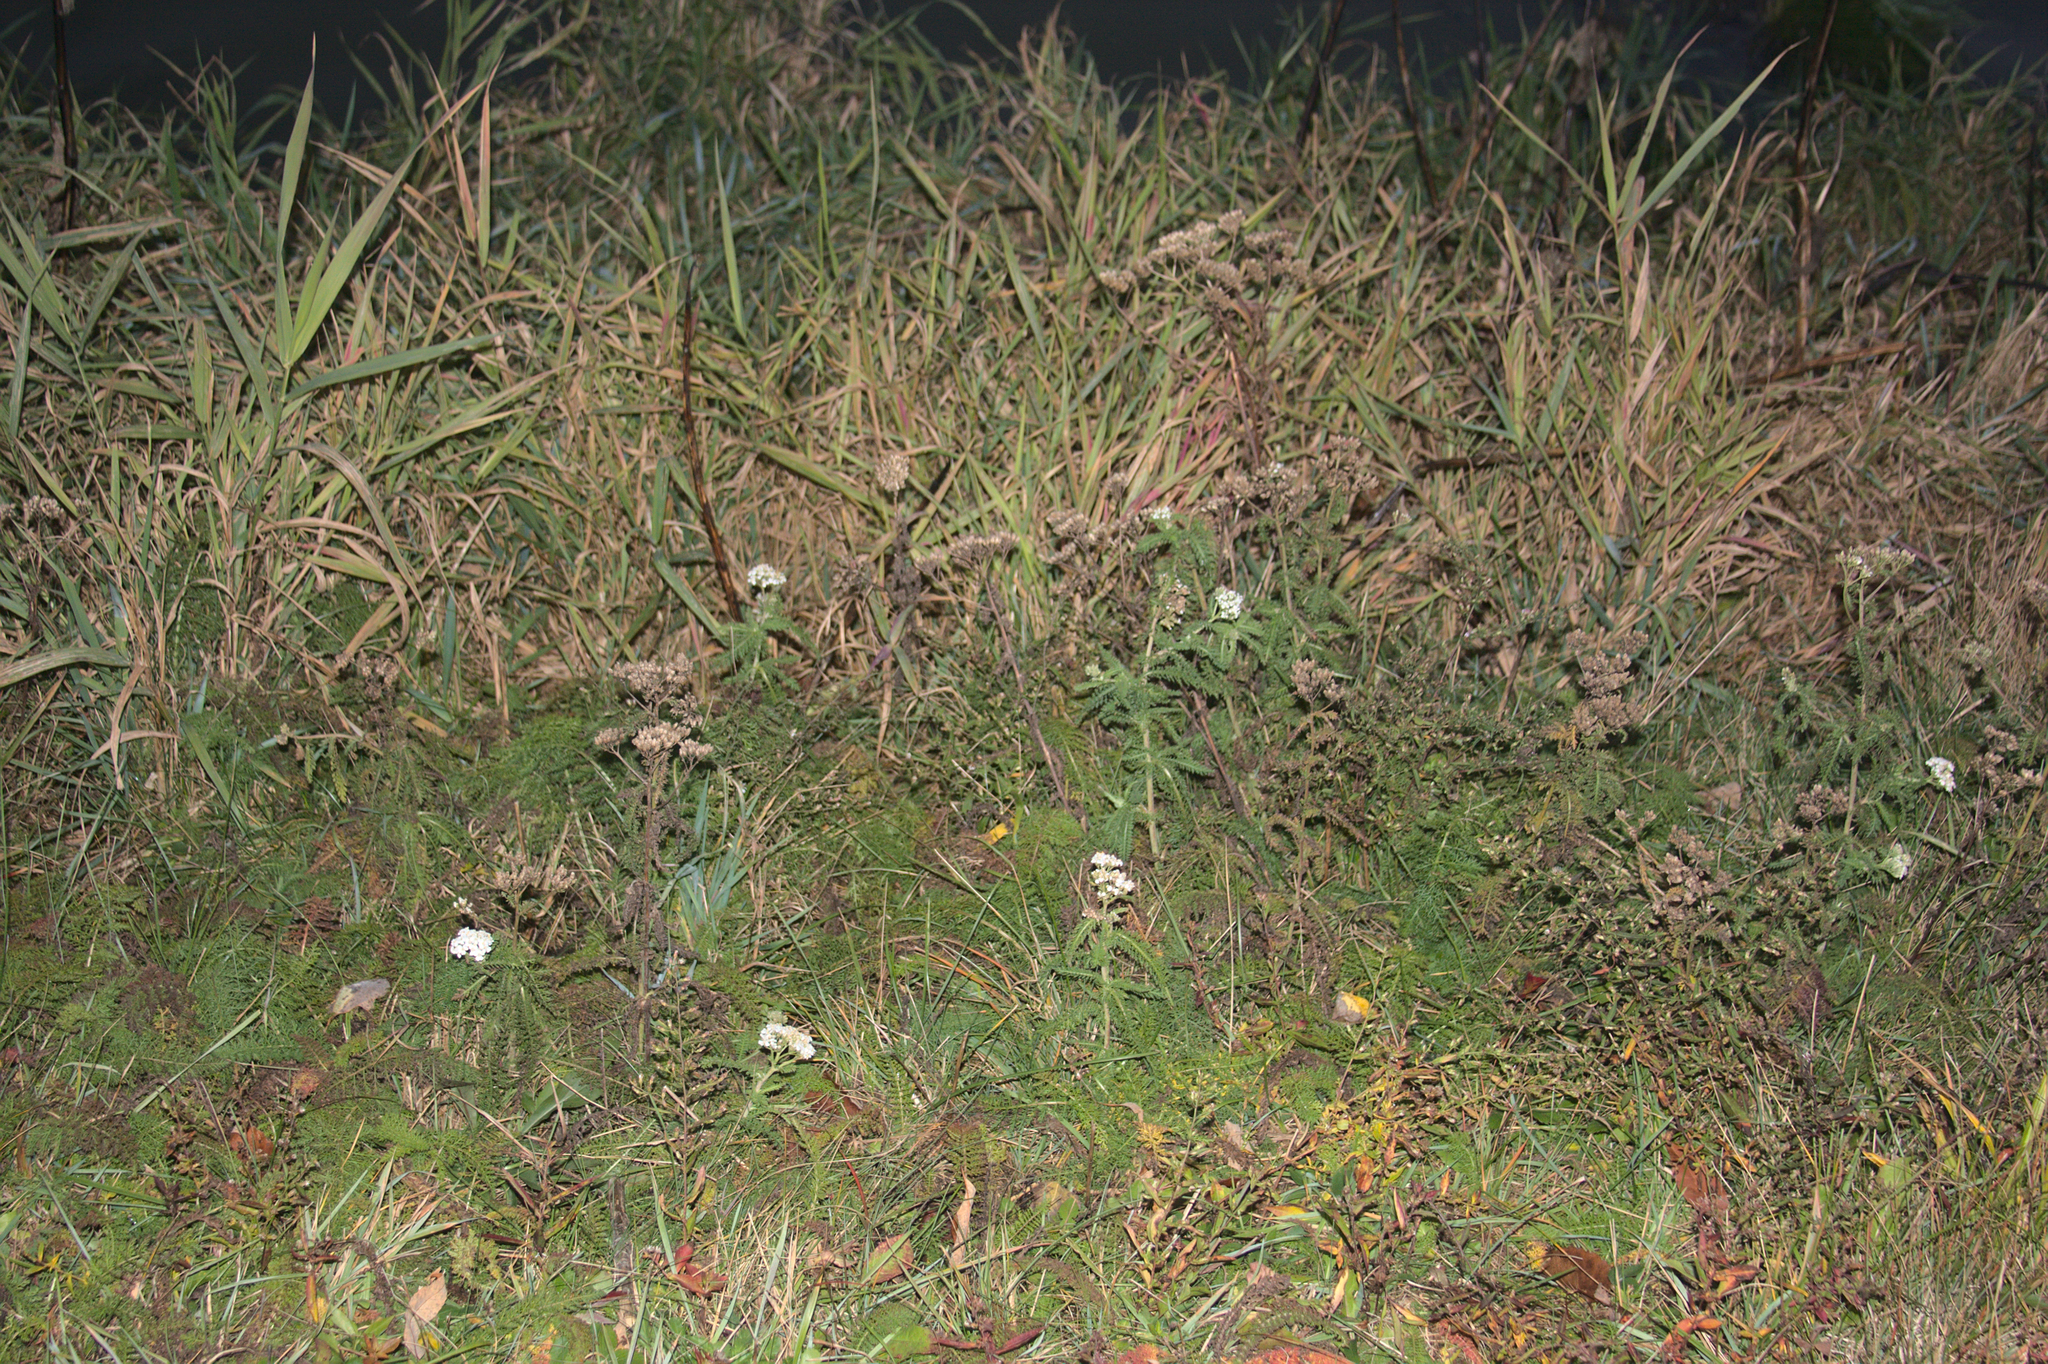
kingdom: Plantae
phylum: Tracheophyta
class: Magnoliopsida
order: Asterales
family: Asteraceae
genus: Achillea
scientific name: Achillea millefolium
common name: Yarrow
